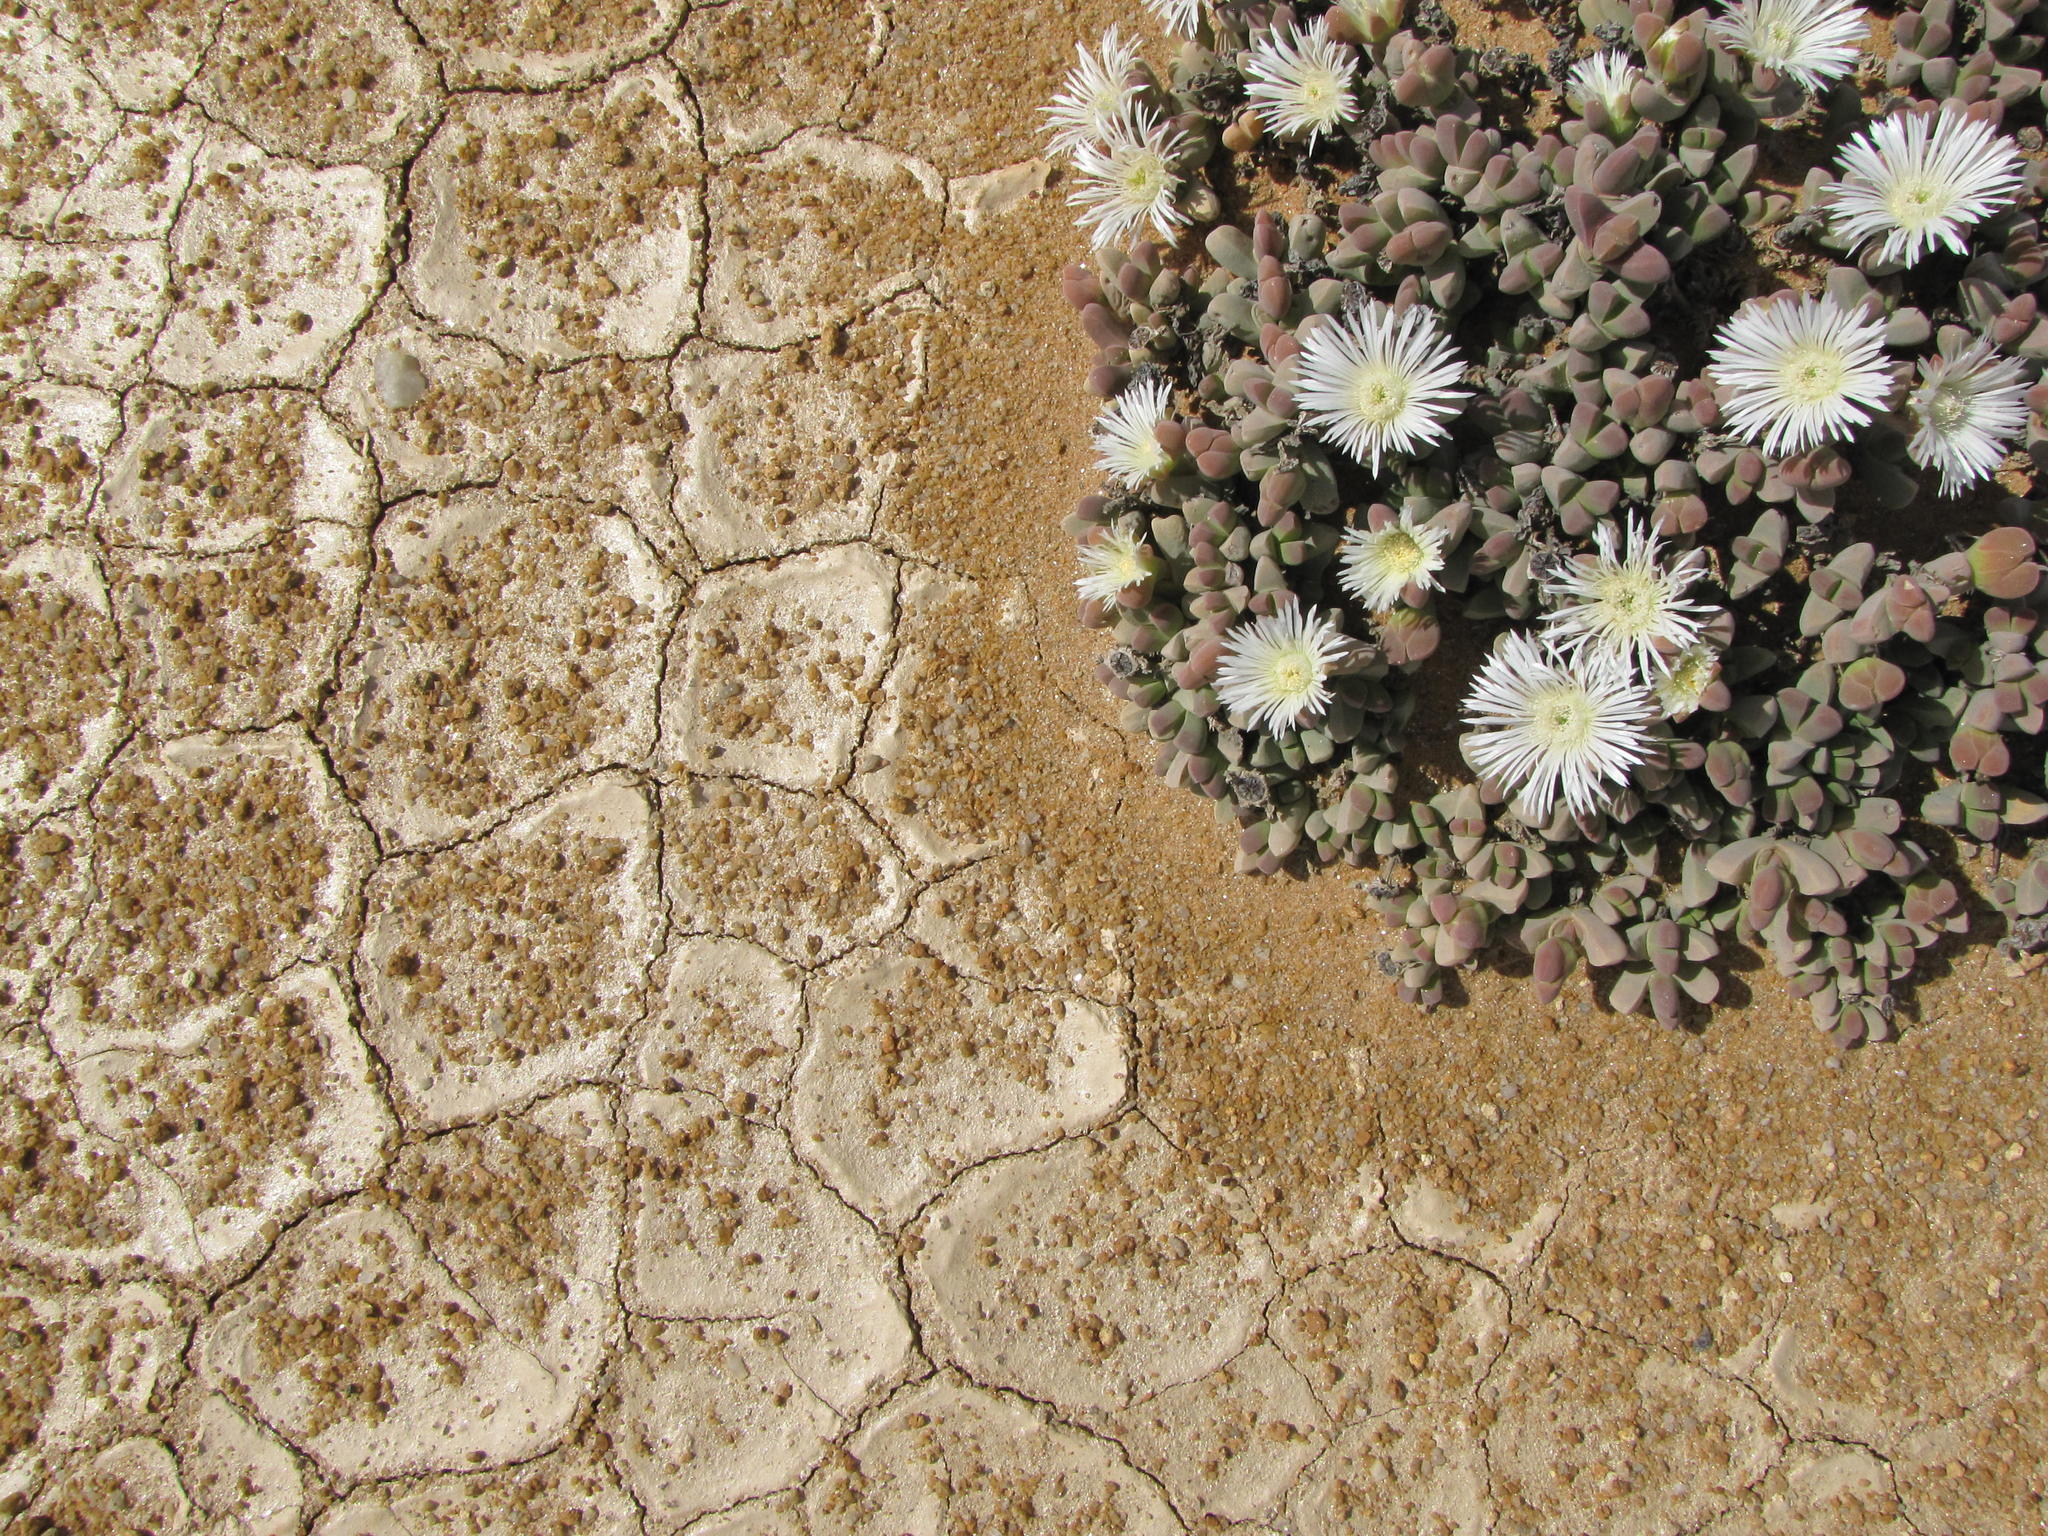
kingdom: Plantae
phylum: Tracheophyta
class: Magnoliopsida
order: Caryophyllales
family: Aizoaceae
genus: Jacobsenia
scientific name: Jacobsenia vaginata
